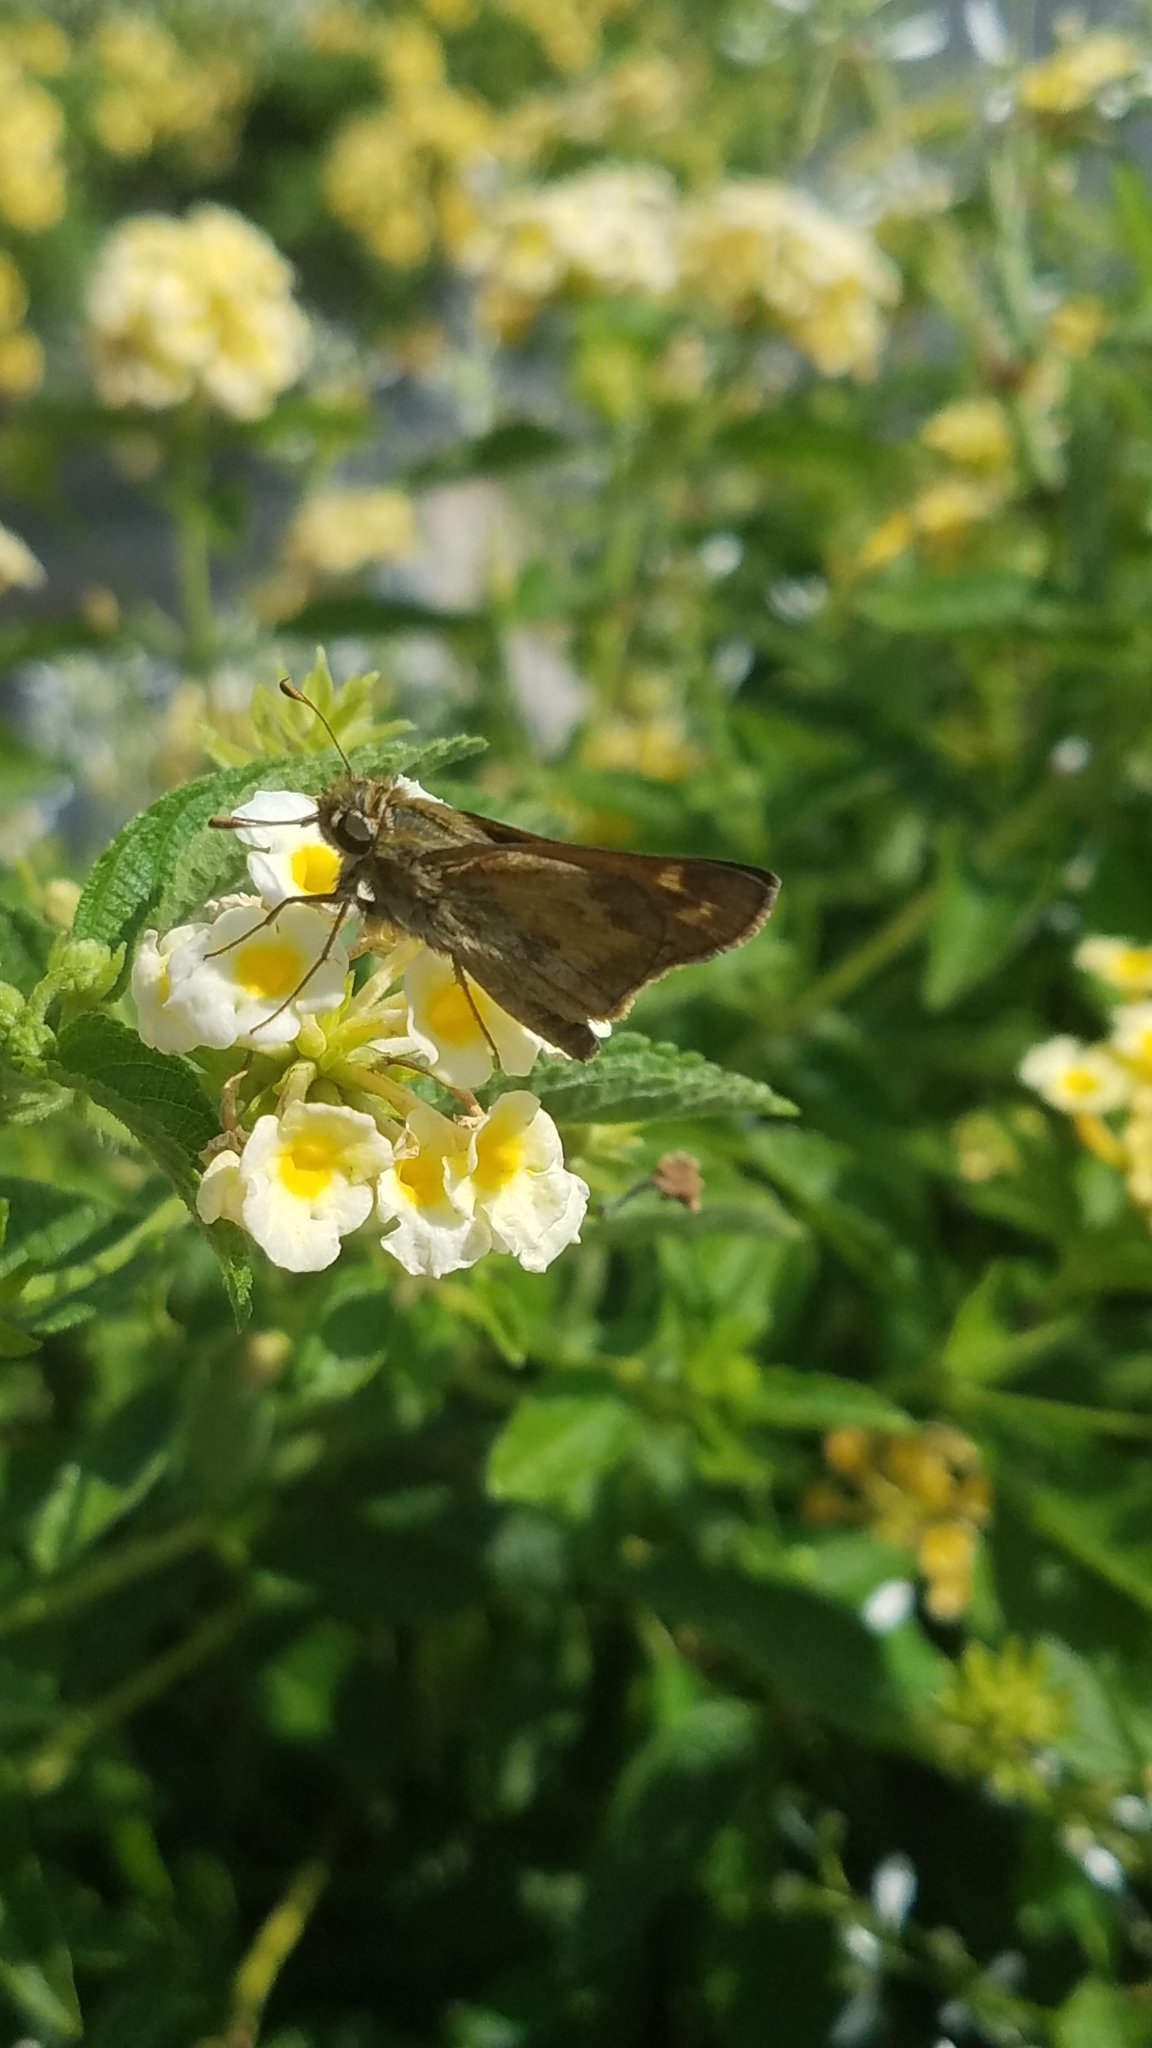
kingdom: Animalia
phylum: Arthropoda
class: Insecta
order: Lepidoptera
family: Hesperiidae
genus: Atalopedes
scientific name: Atalopedes
